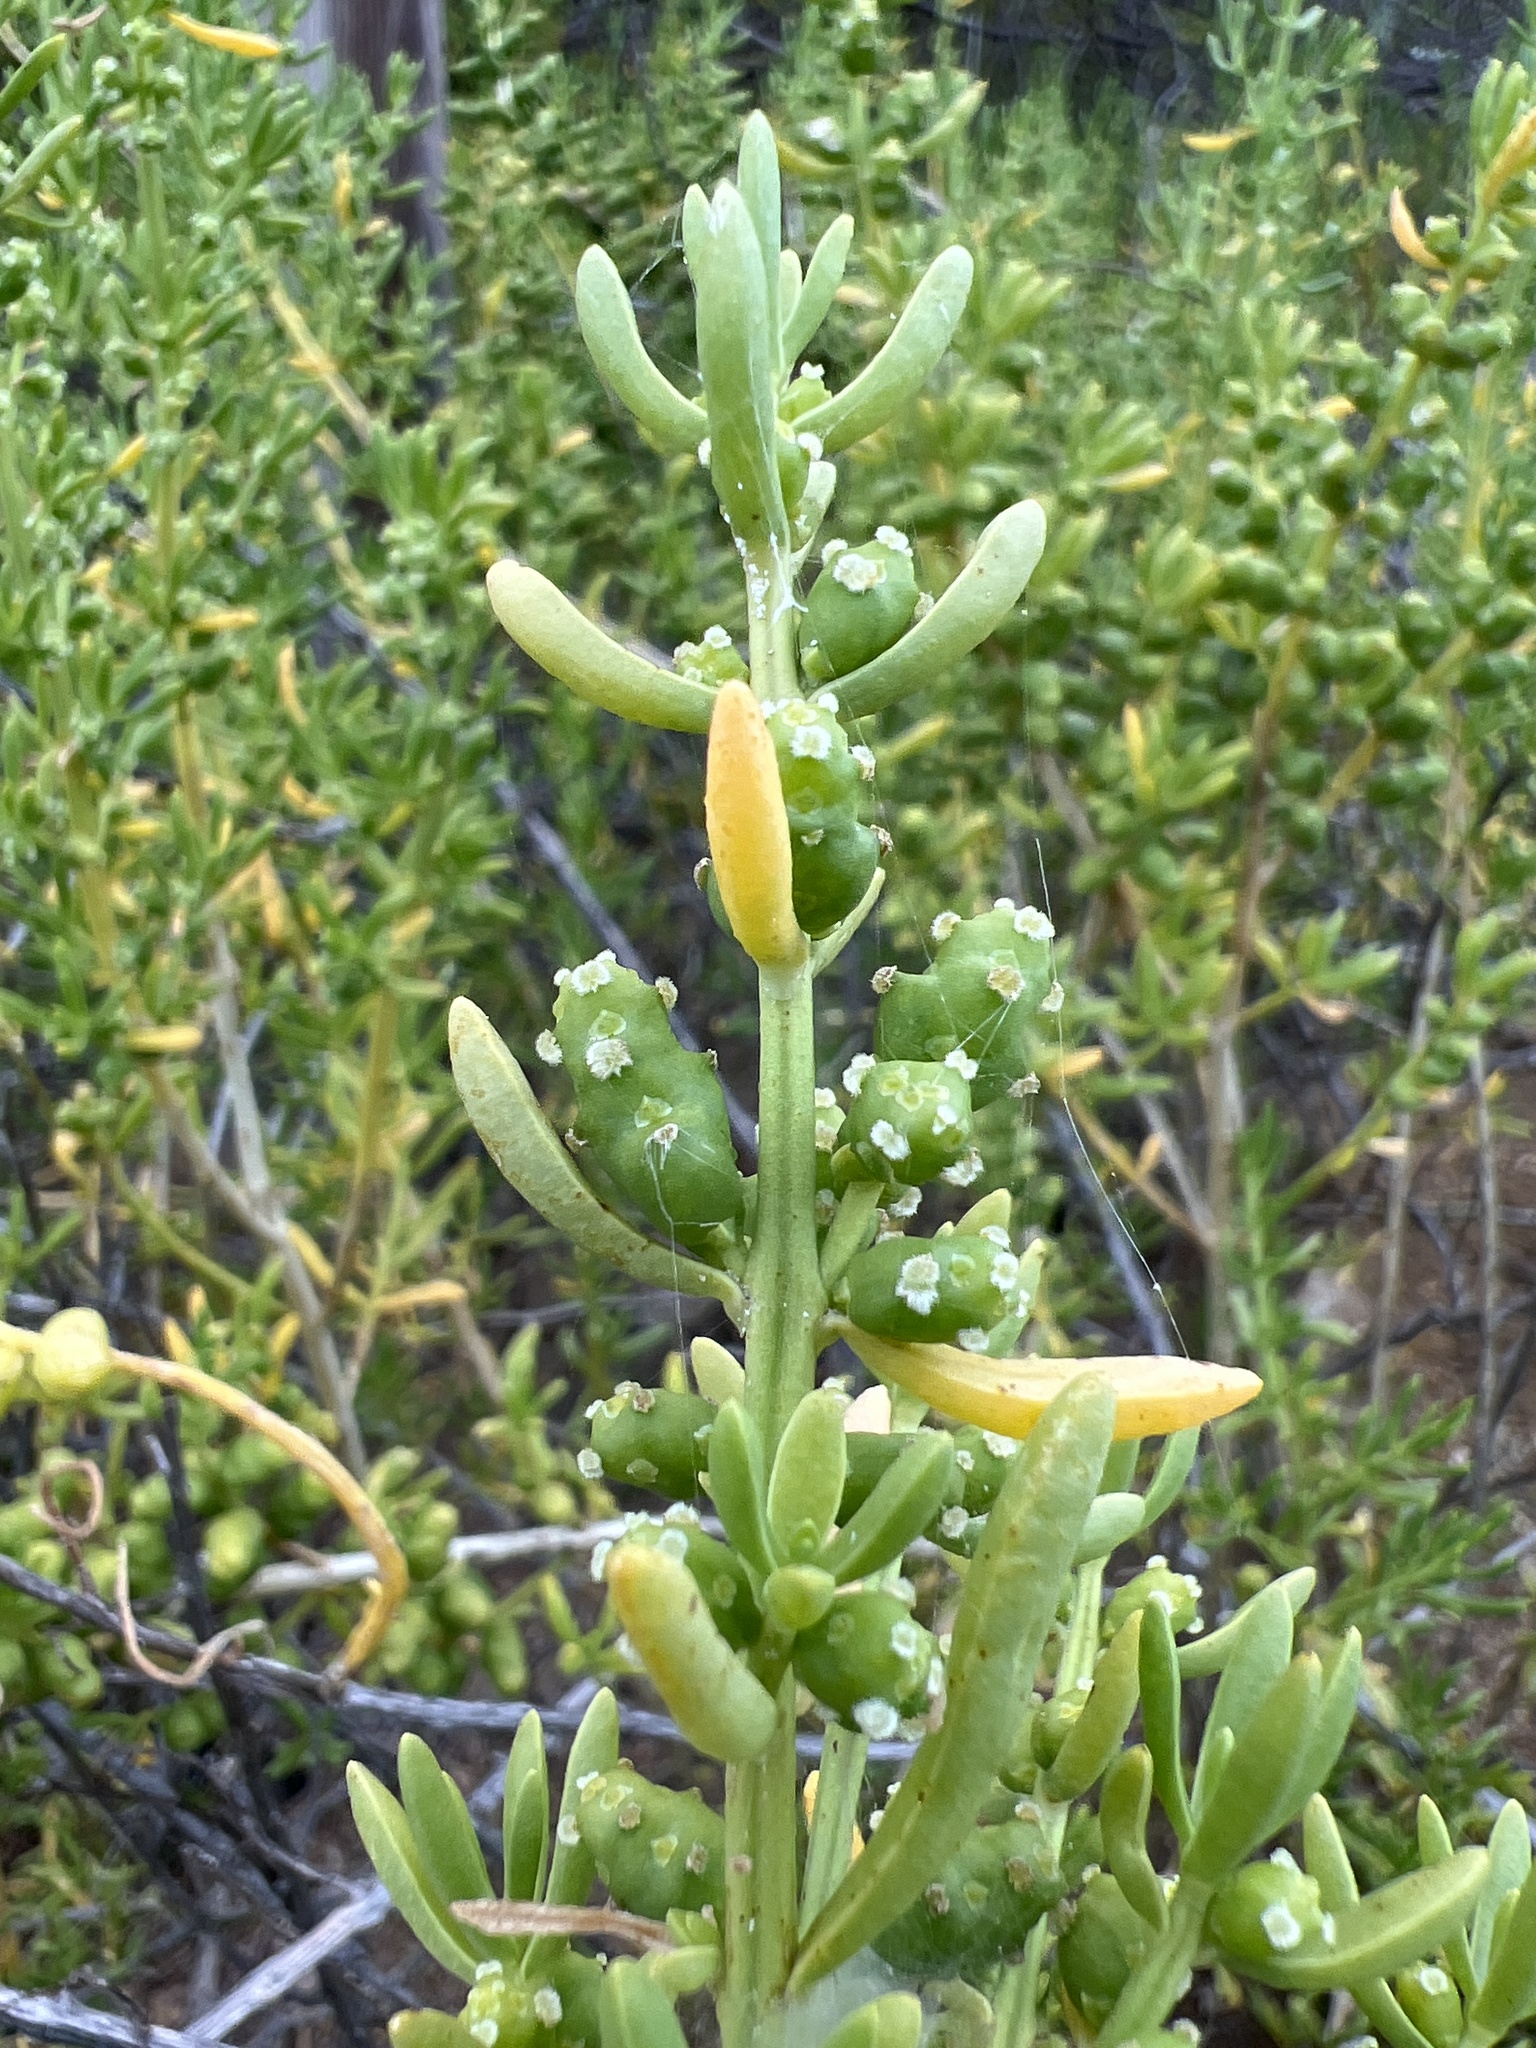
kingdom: Plantae
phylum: Tracheophyta
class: Magnoliopsida
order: Brassicales
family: Bataceae
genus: Batis
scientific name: Batis maritima
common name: Turtleweed
